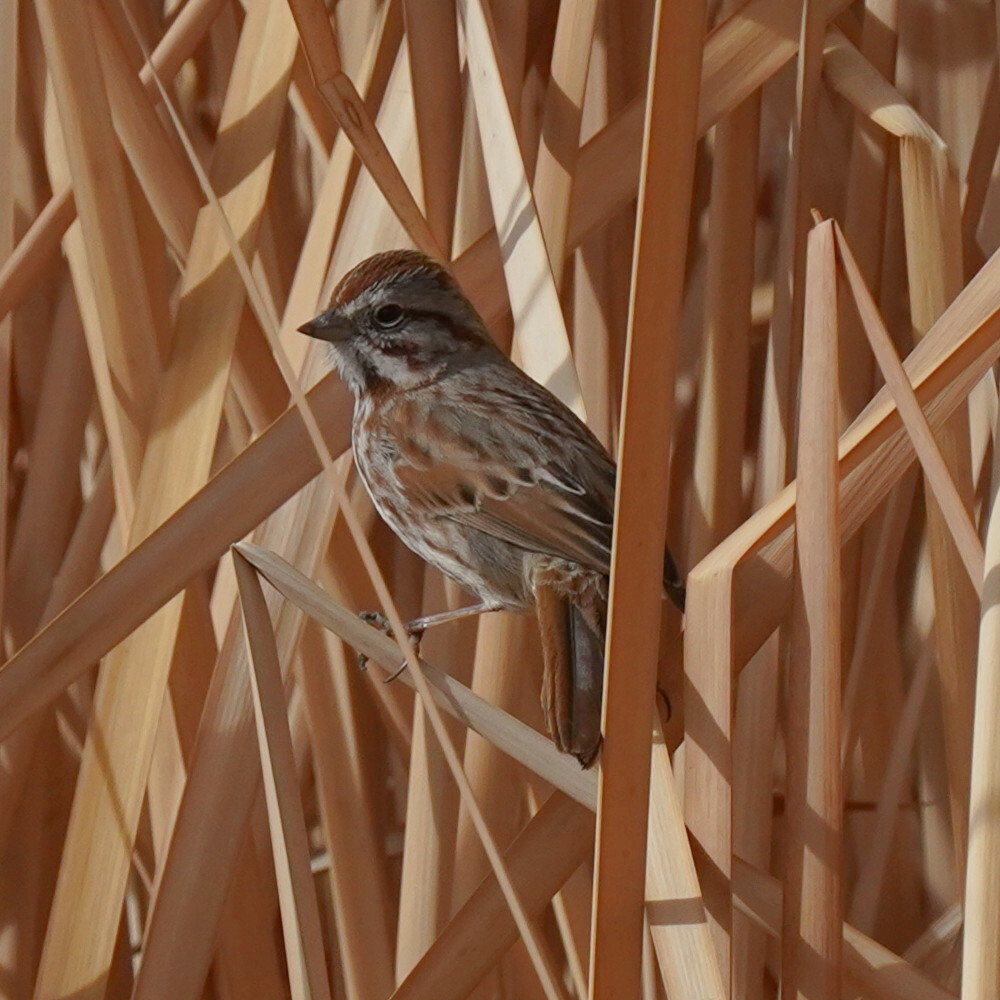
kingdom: Animalia
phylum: Chordata
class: Aves
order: Passeriformes
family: Passerellidae
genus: Melospiza
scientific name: Melospiza melodia
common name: Song sparrow
